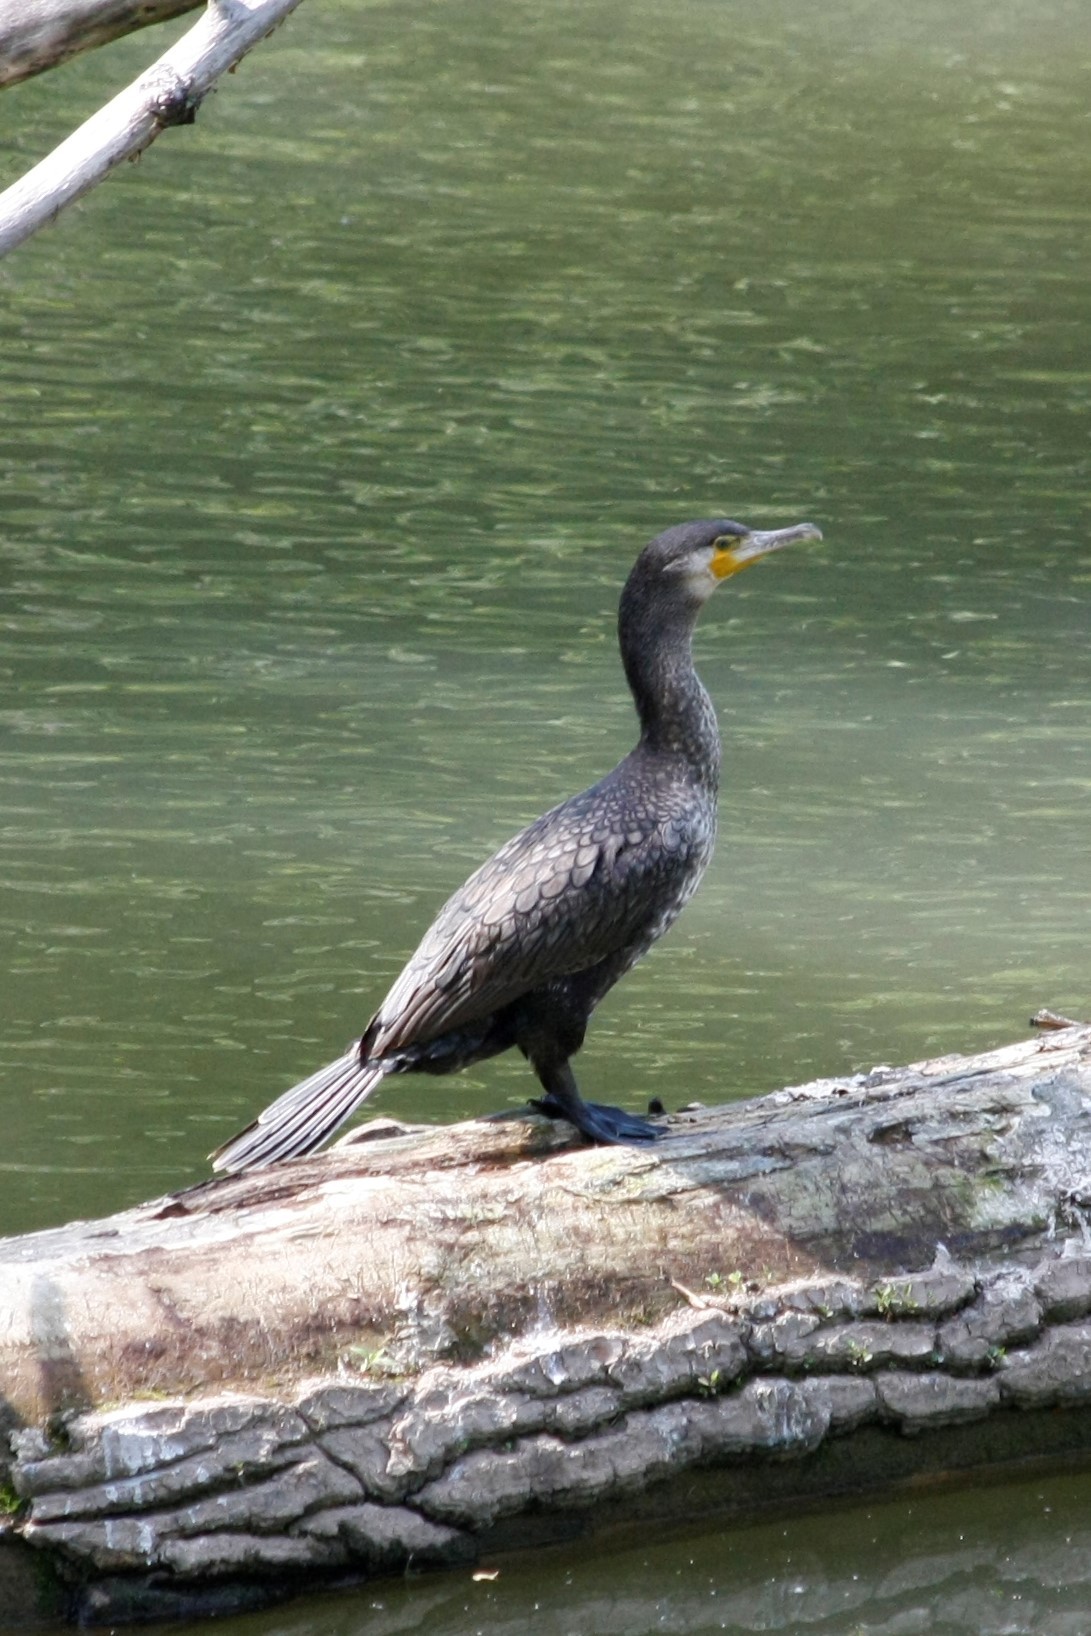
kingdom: Animalia
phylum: Chordata
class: Aves
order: Suliformes
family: Phalacrocoracidae
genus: Phalacrocorax
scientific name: Phalacrocorax carbo
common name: Great cormorant
